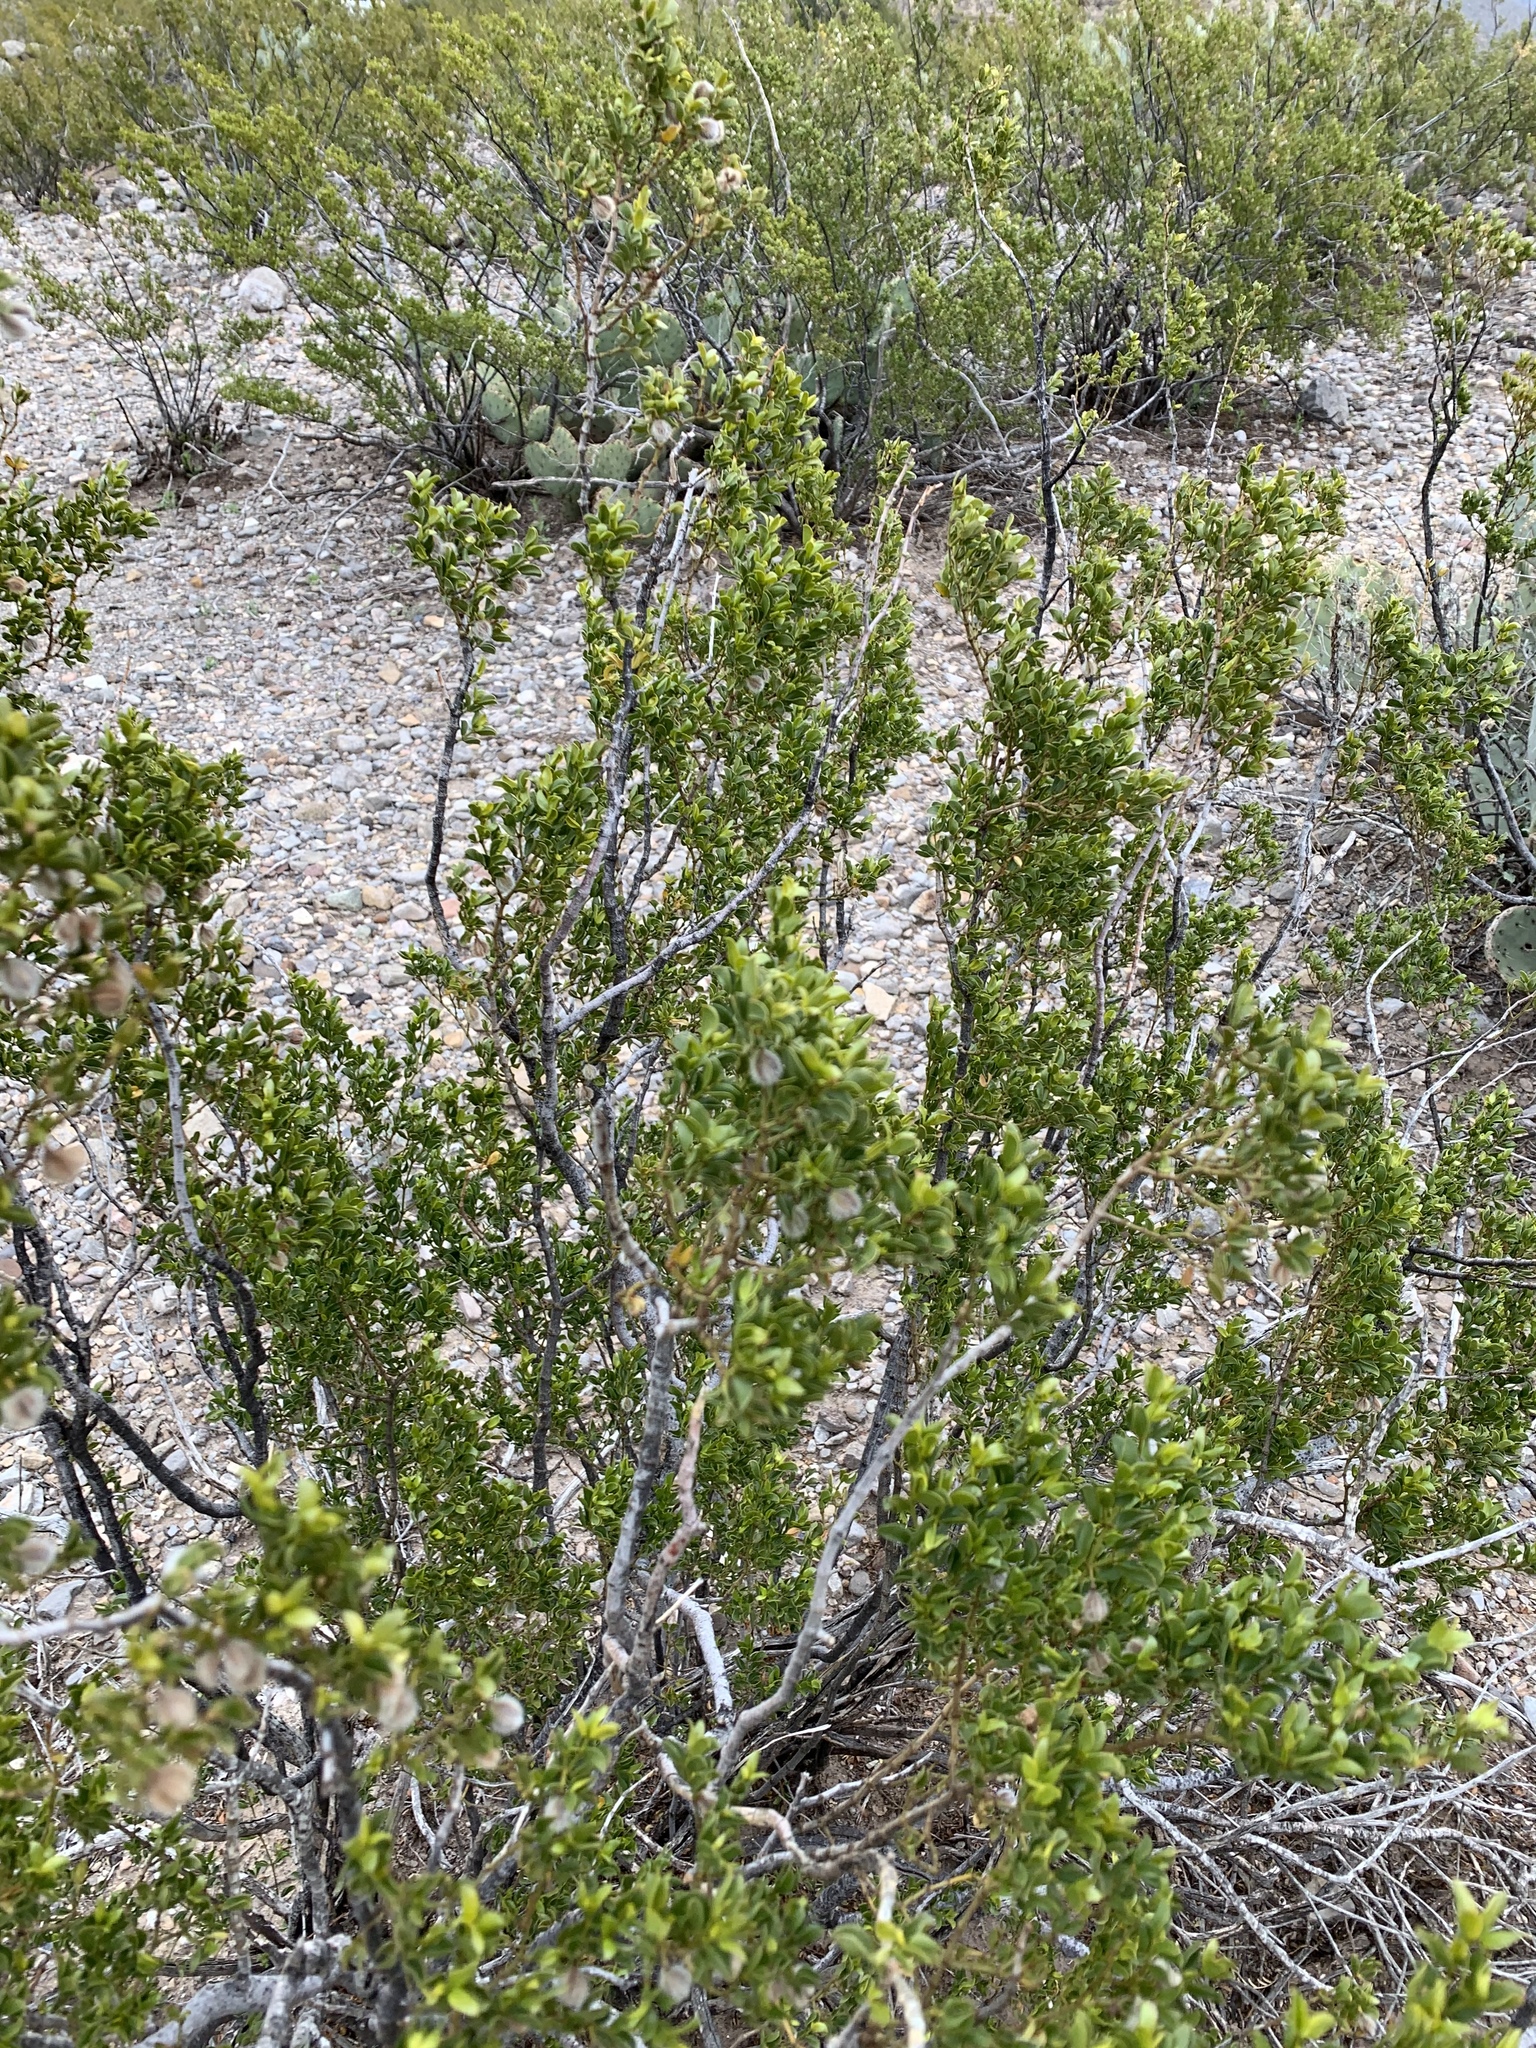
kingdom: Plantae
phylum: Tracheophyta
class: Magnoliopsida
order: Zygophyllales
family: Zygophyllaceae
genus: Larrea
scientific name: Larrea tridentata
